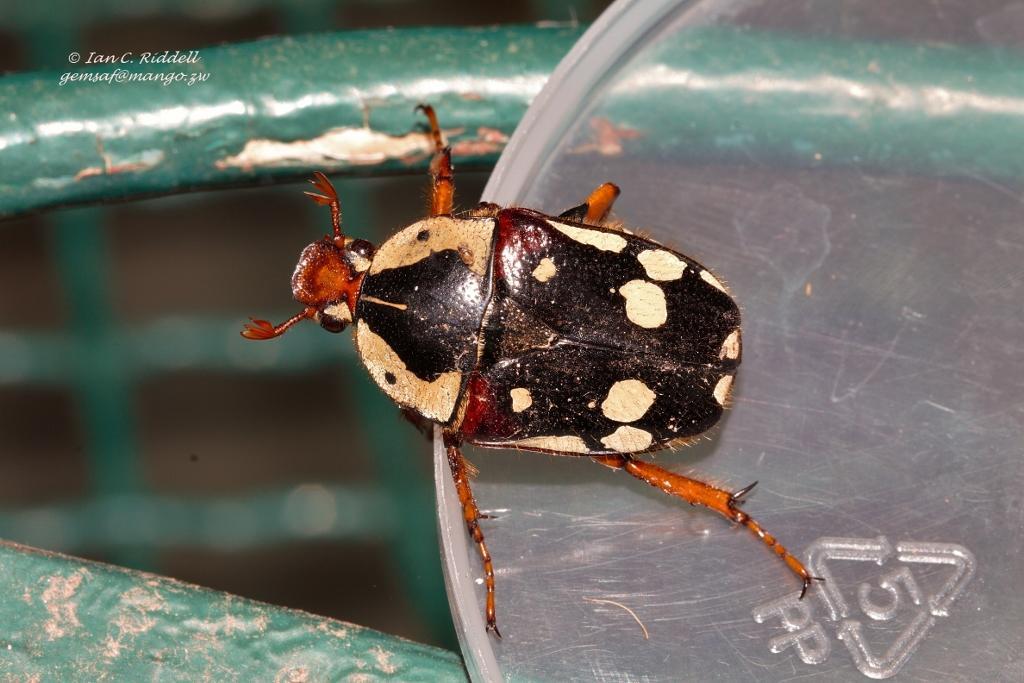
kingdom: Animalia
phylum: Arthropoda
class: Insecta
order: Coleoptera
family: Scarabaeidae
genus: Cheirolasia
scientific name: Cheirolasia burkei
